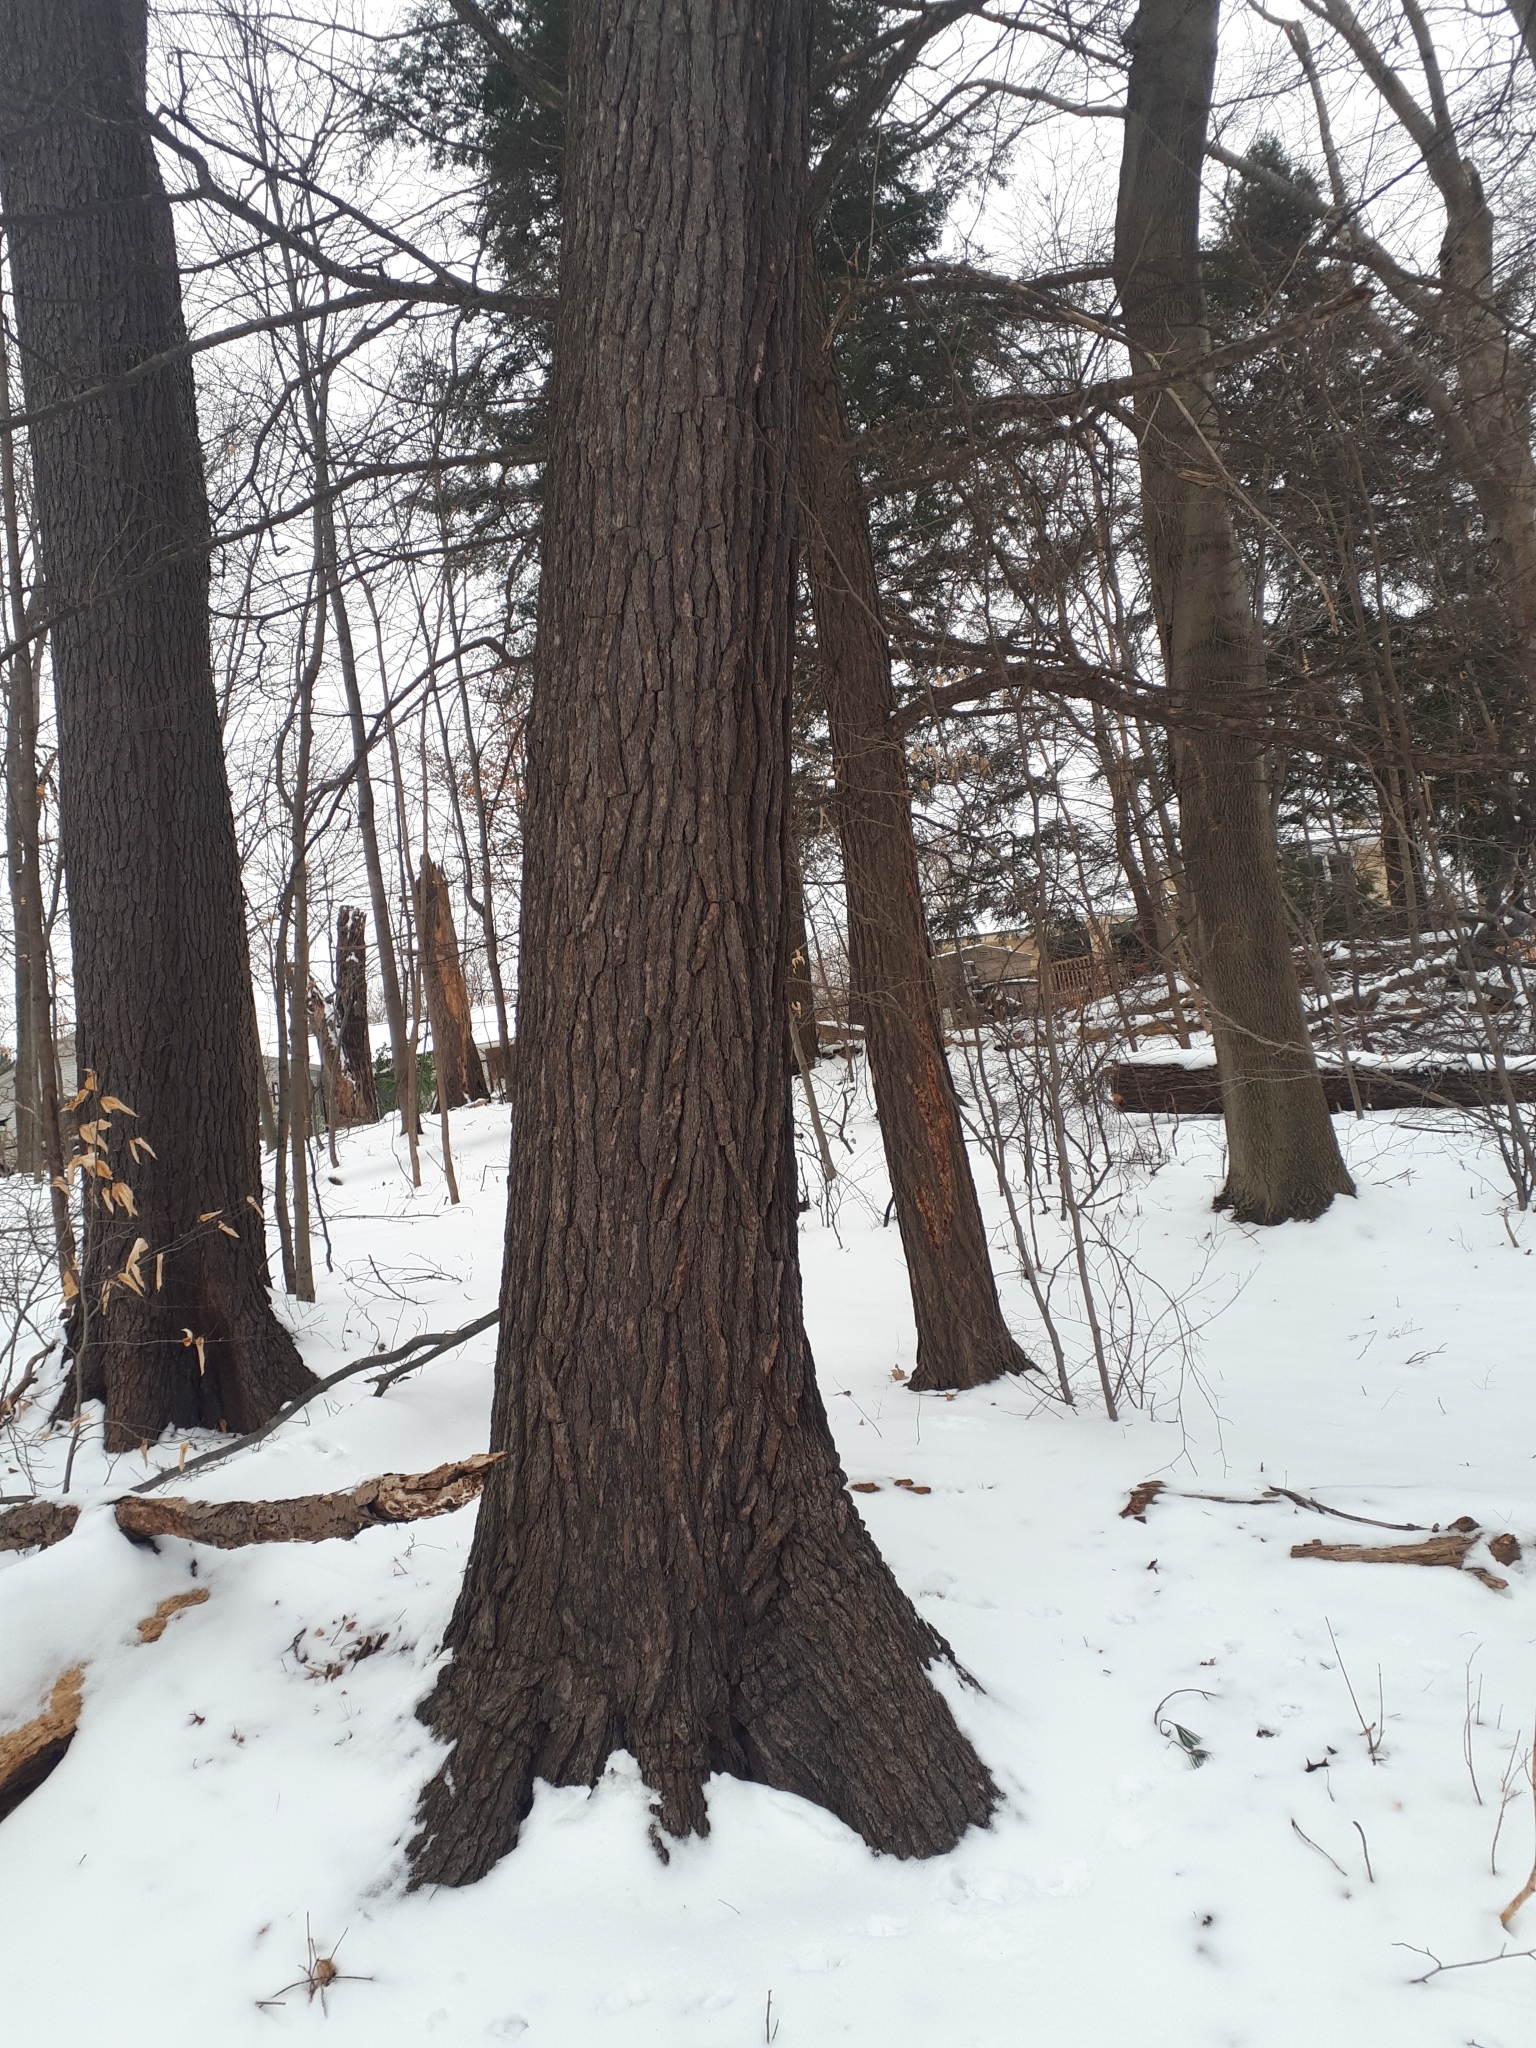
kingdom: Plantae
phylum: Tracheophyta
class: Pinopsida
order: Pinales
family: Pinaceae
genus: Pinus
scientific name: Pinus strobus
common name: Weymouth pine
